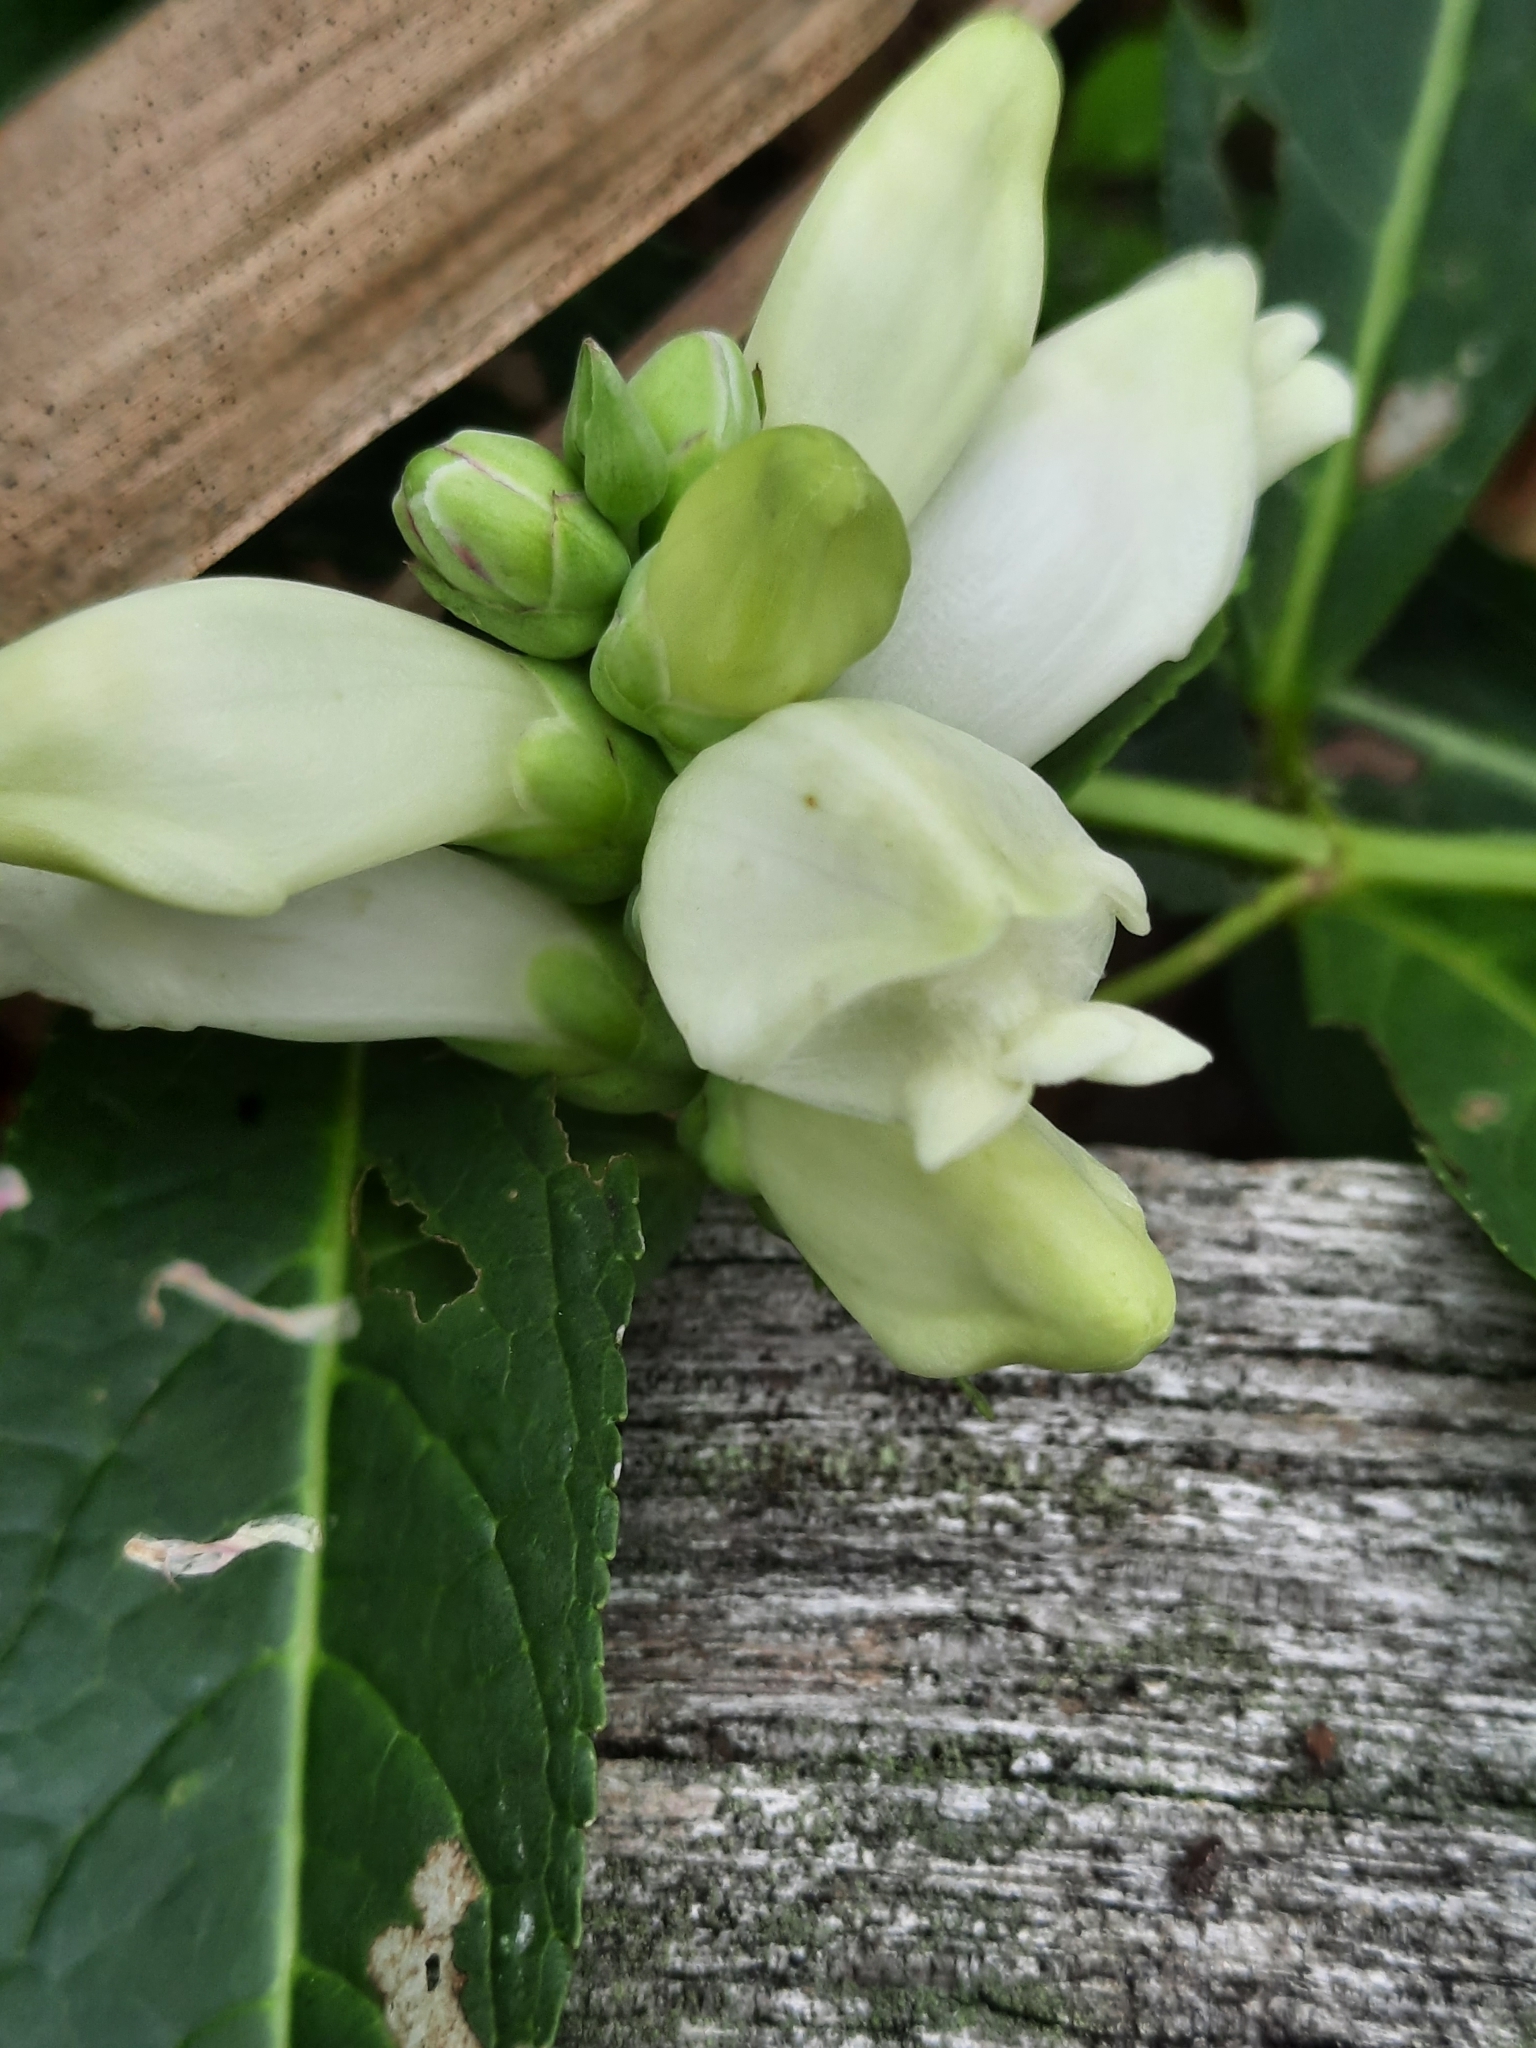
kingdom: Plantae
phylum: Tracheophyta
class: Magnoliopsida
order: Lamiales
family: Plantaginaceae
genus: Chelone
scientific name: Chelone glabra
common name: Snakehead
